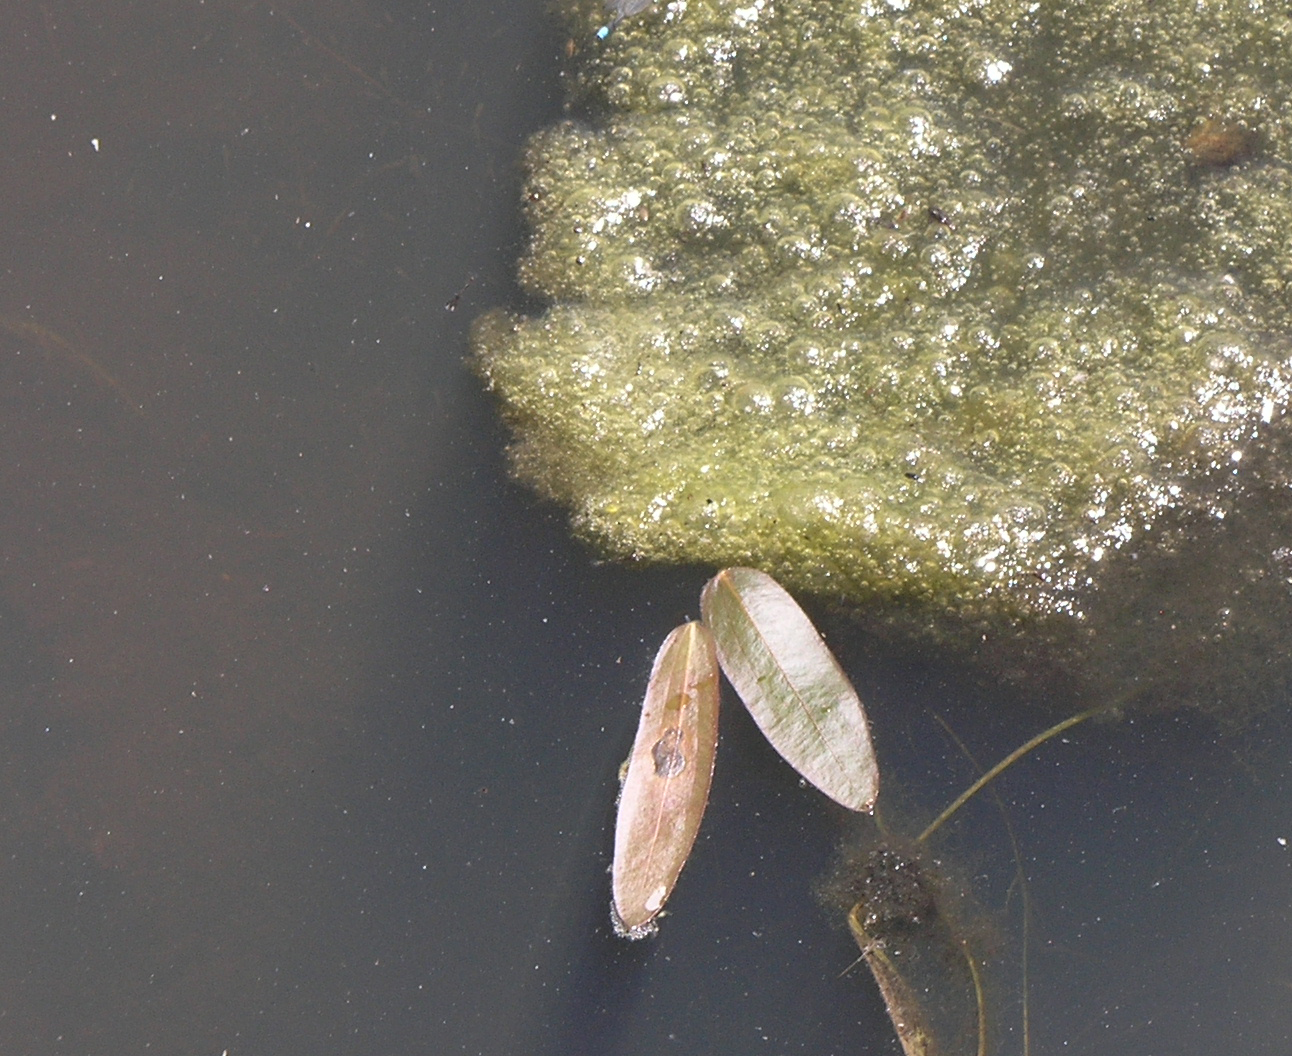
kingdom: Plantae
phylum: Tracheophyta
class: Liliopsida
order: Alismatales
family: Alismataceae
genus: Sagittaria
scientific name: Sagittaria natans
